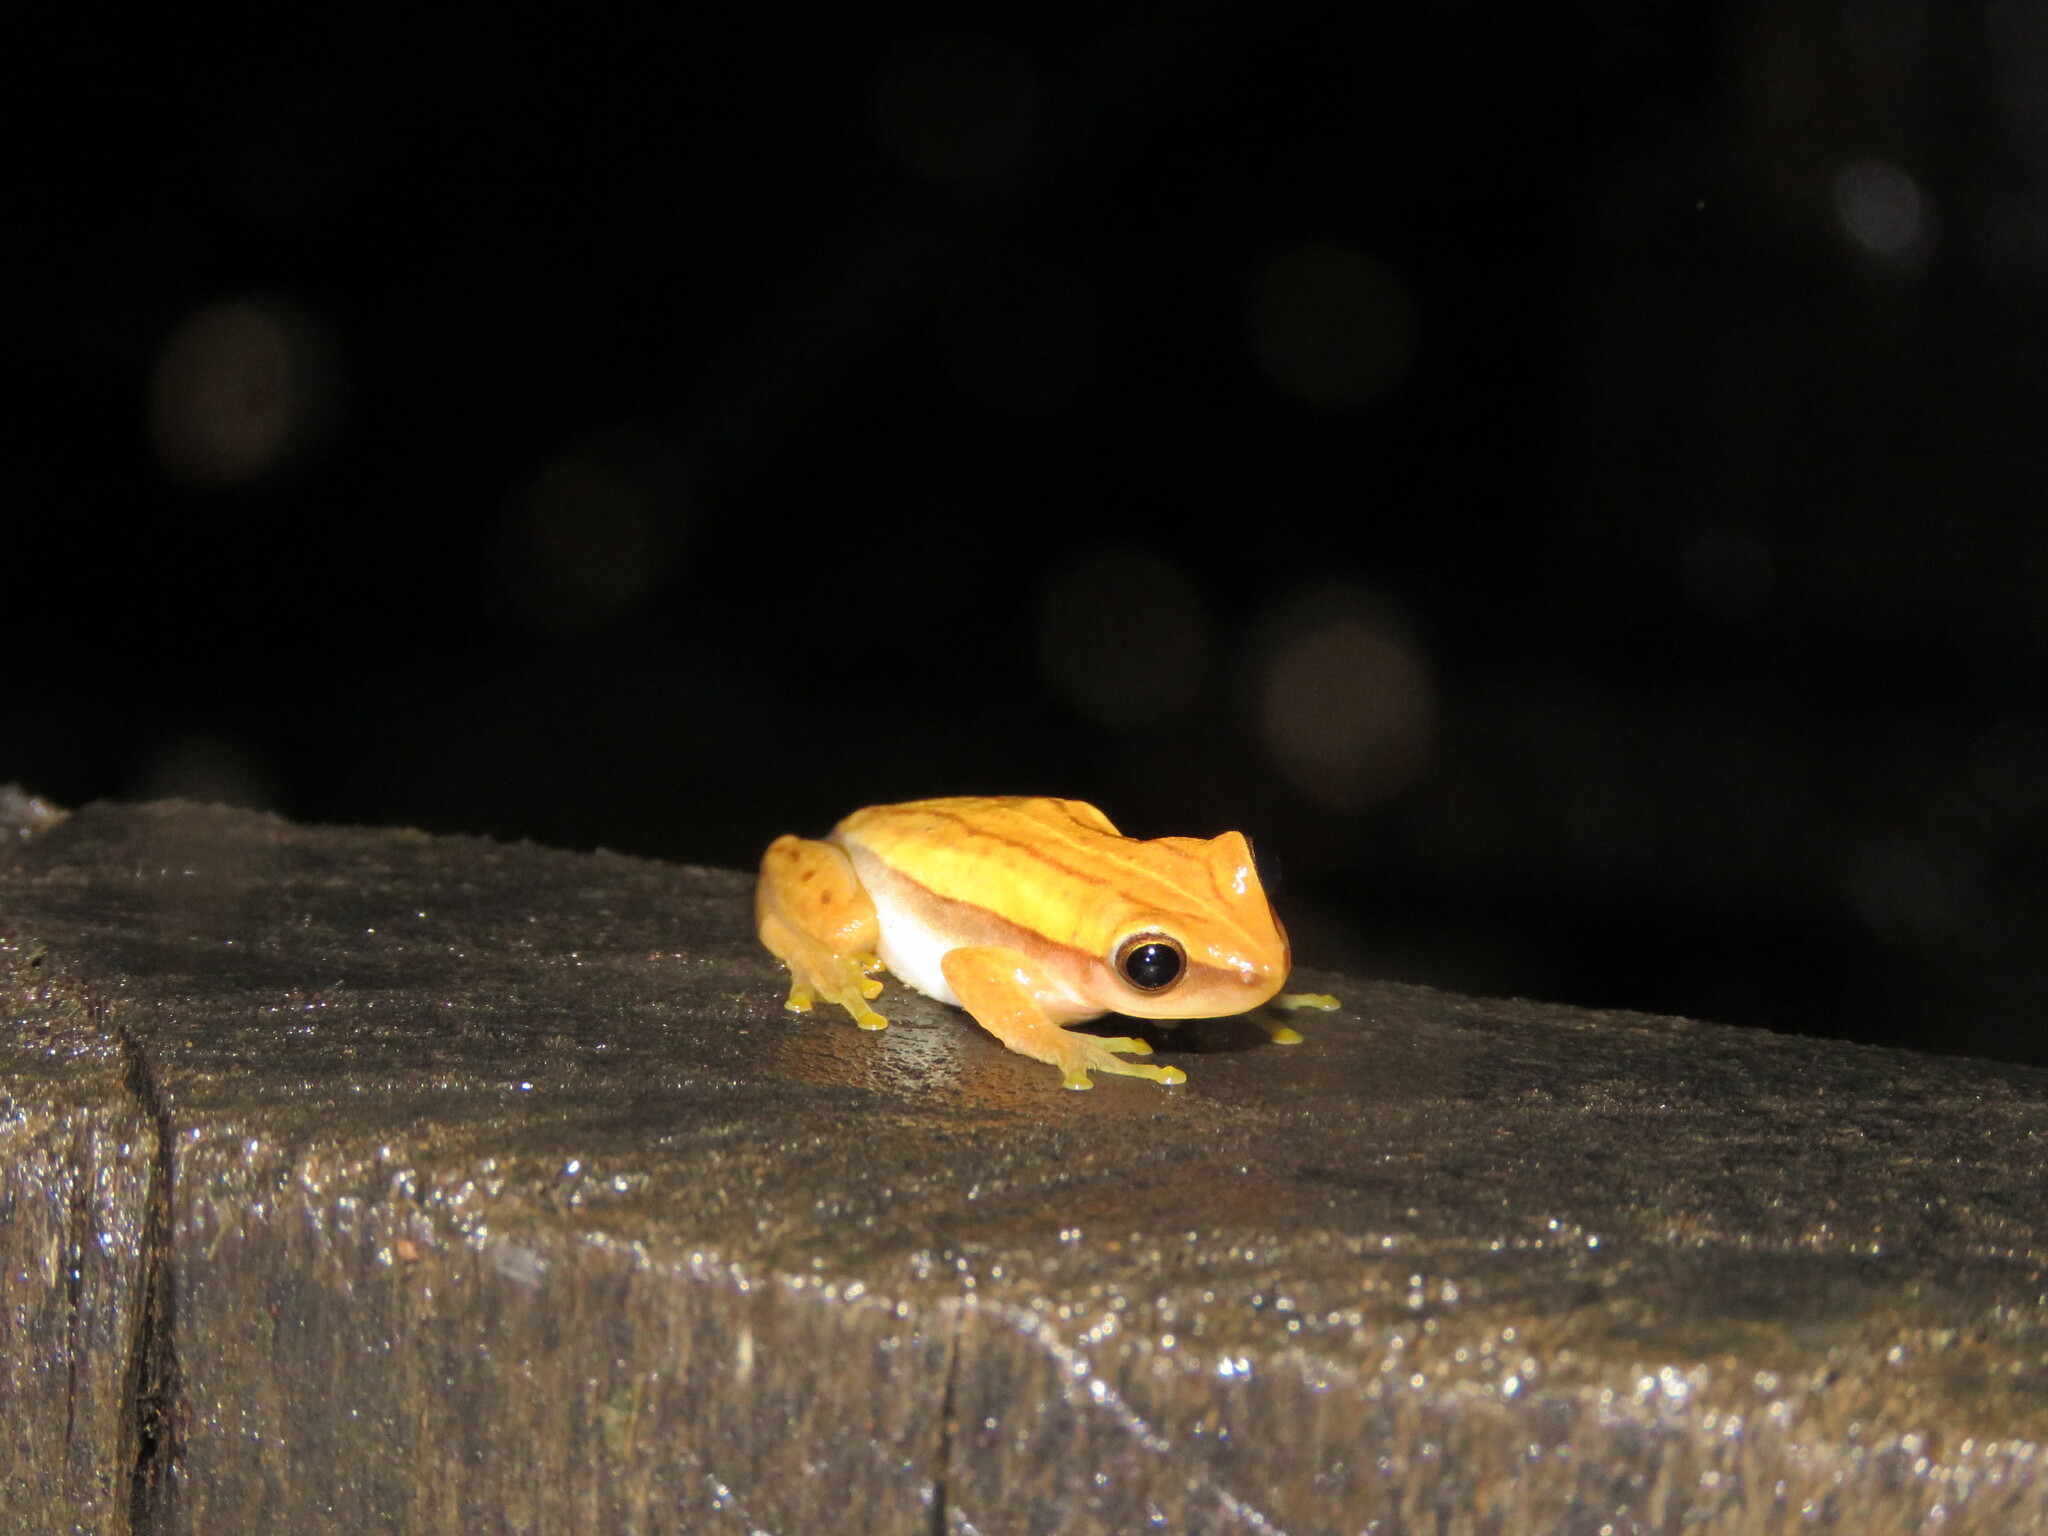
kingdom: Animalia
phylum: Chordata
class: Amphibia
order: Anura
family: Hylidae
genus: Dendropsophus
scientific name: Dendropsophus walfordi
